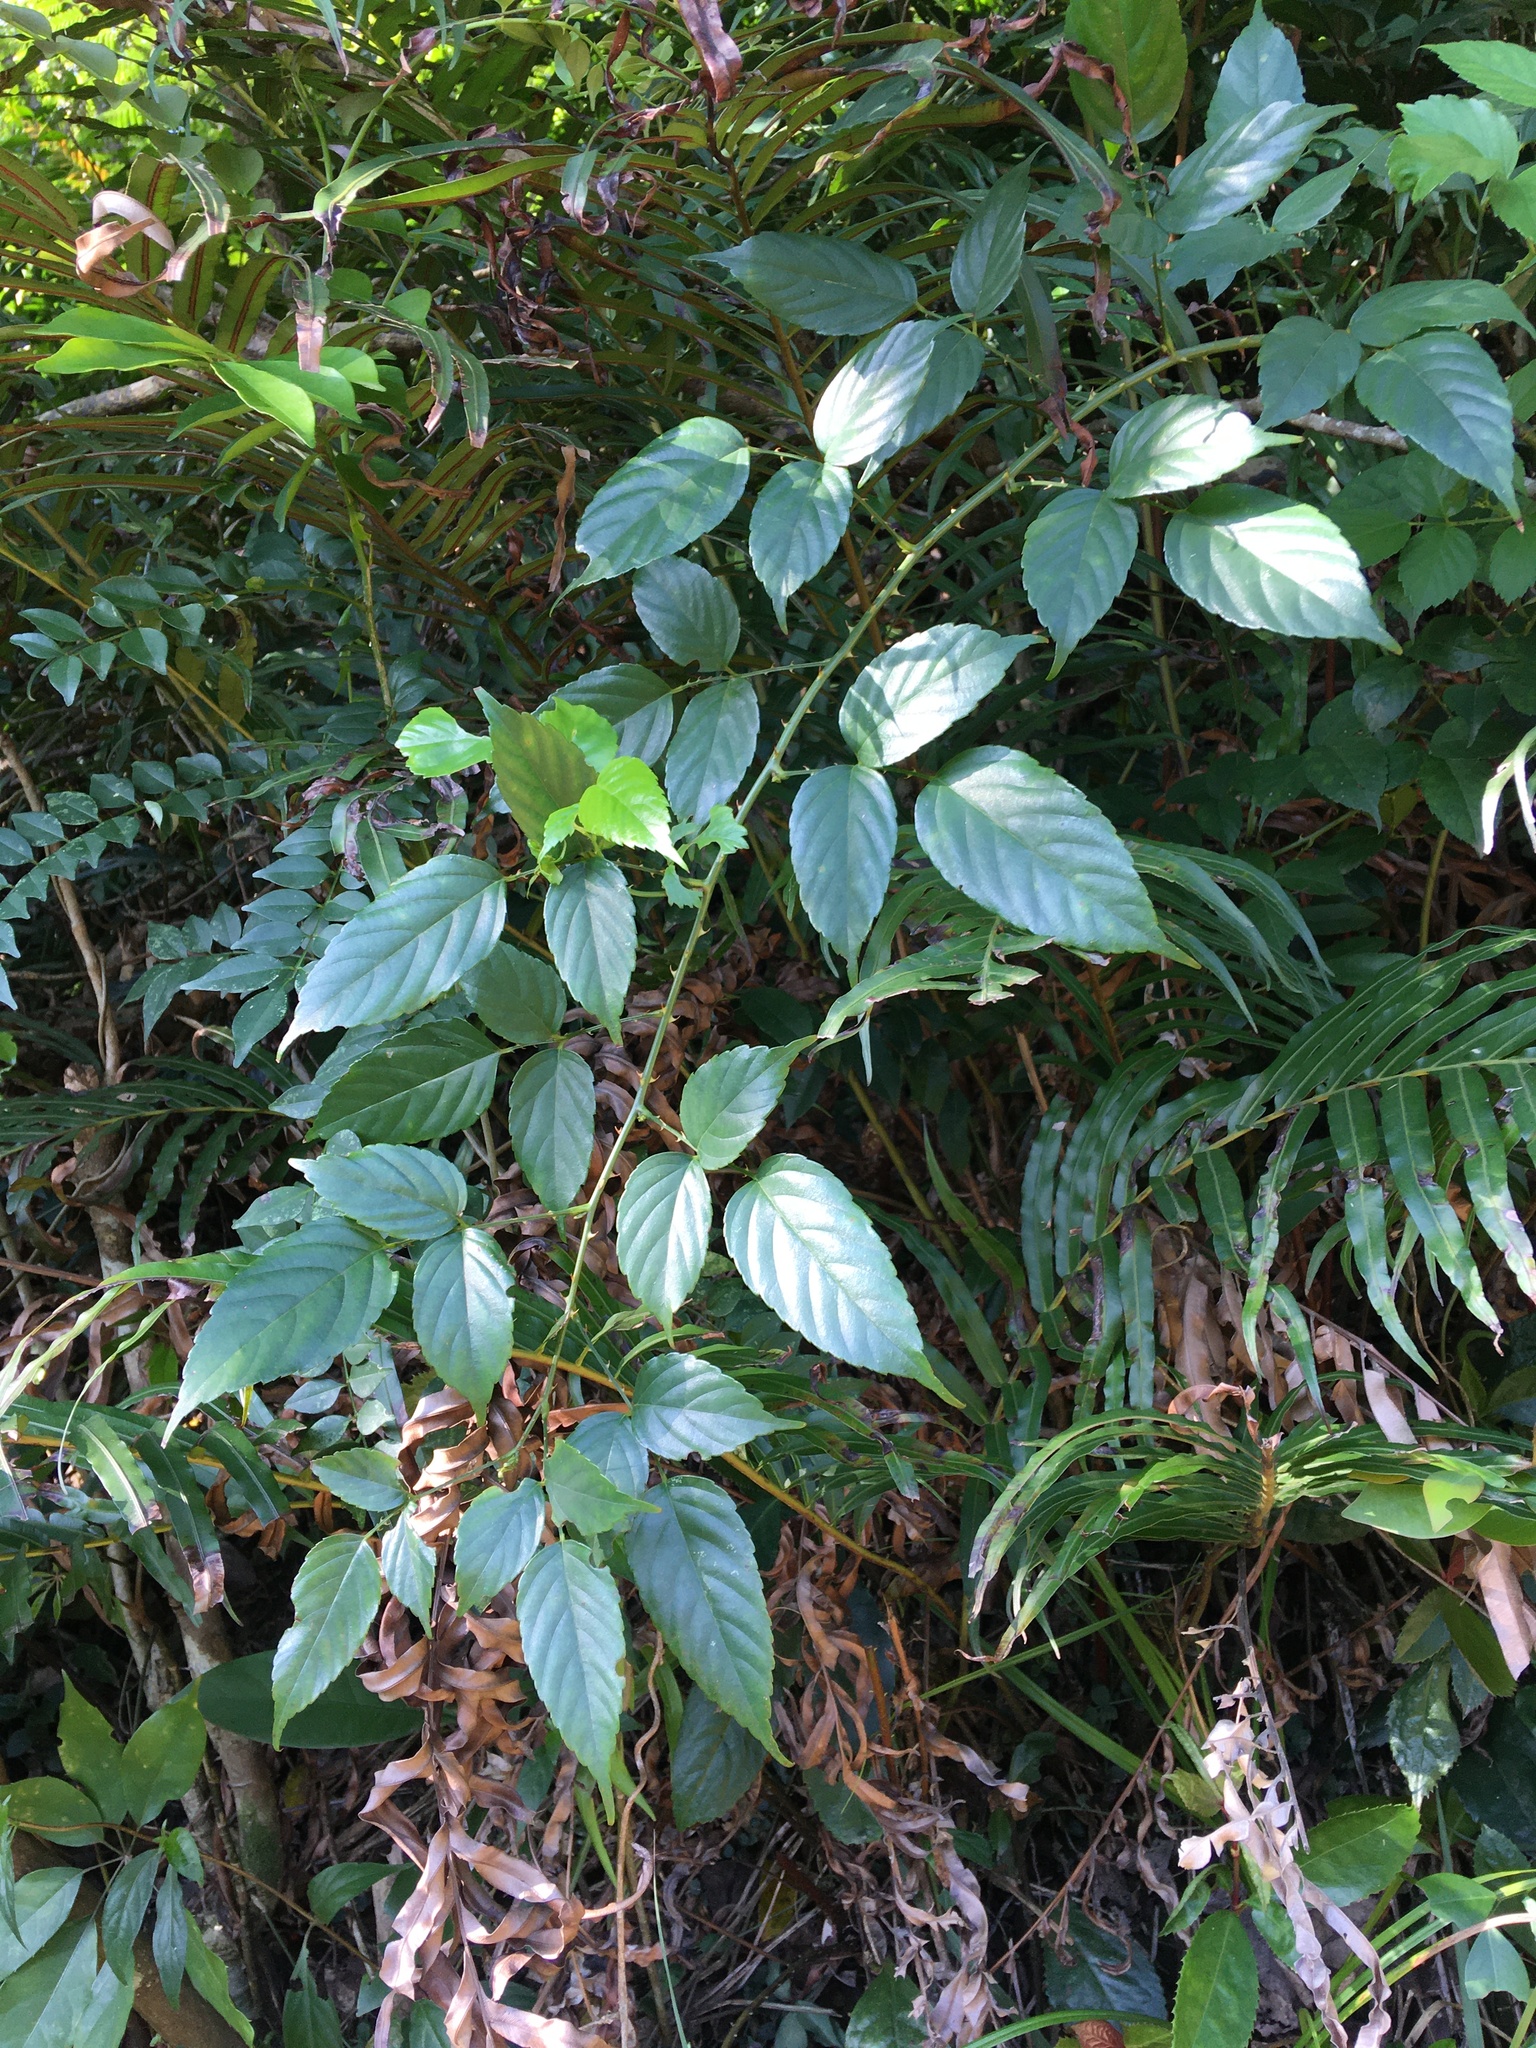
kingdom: Plantae
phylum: Tracheophyta
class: Magnoliopsida
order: Rosales
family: Rosaceae
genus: Rubus
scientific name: Rubus leucanthus
